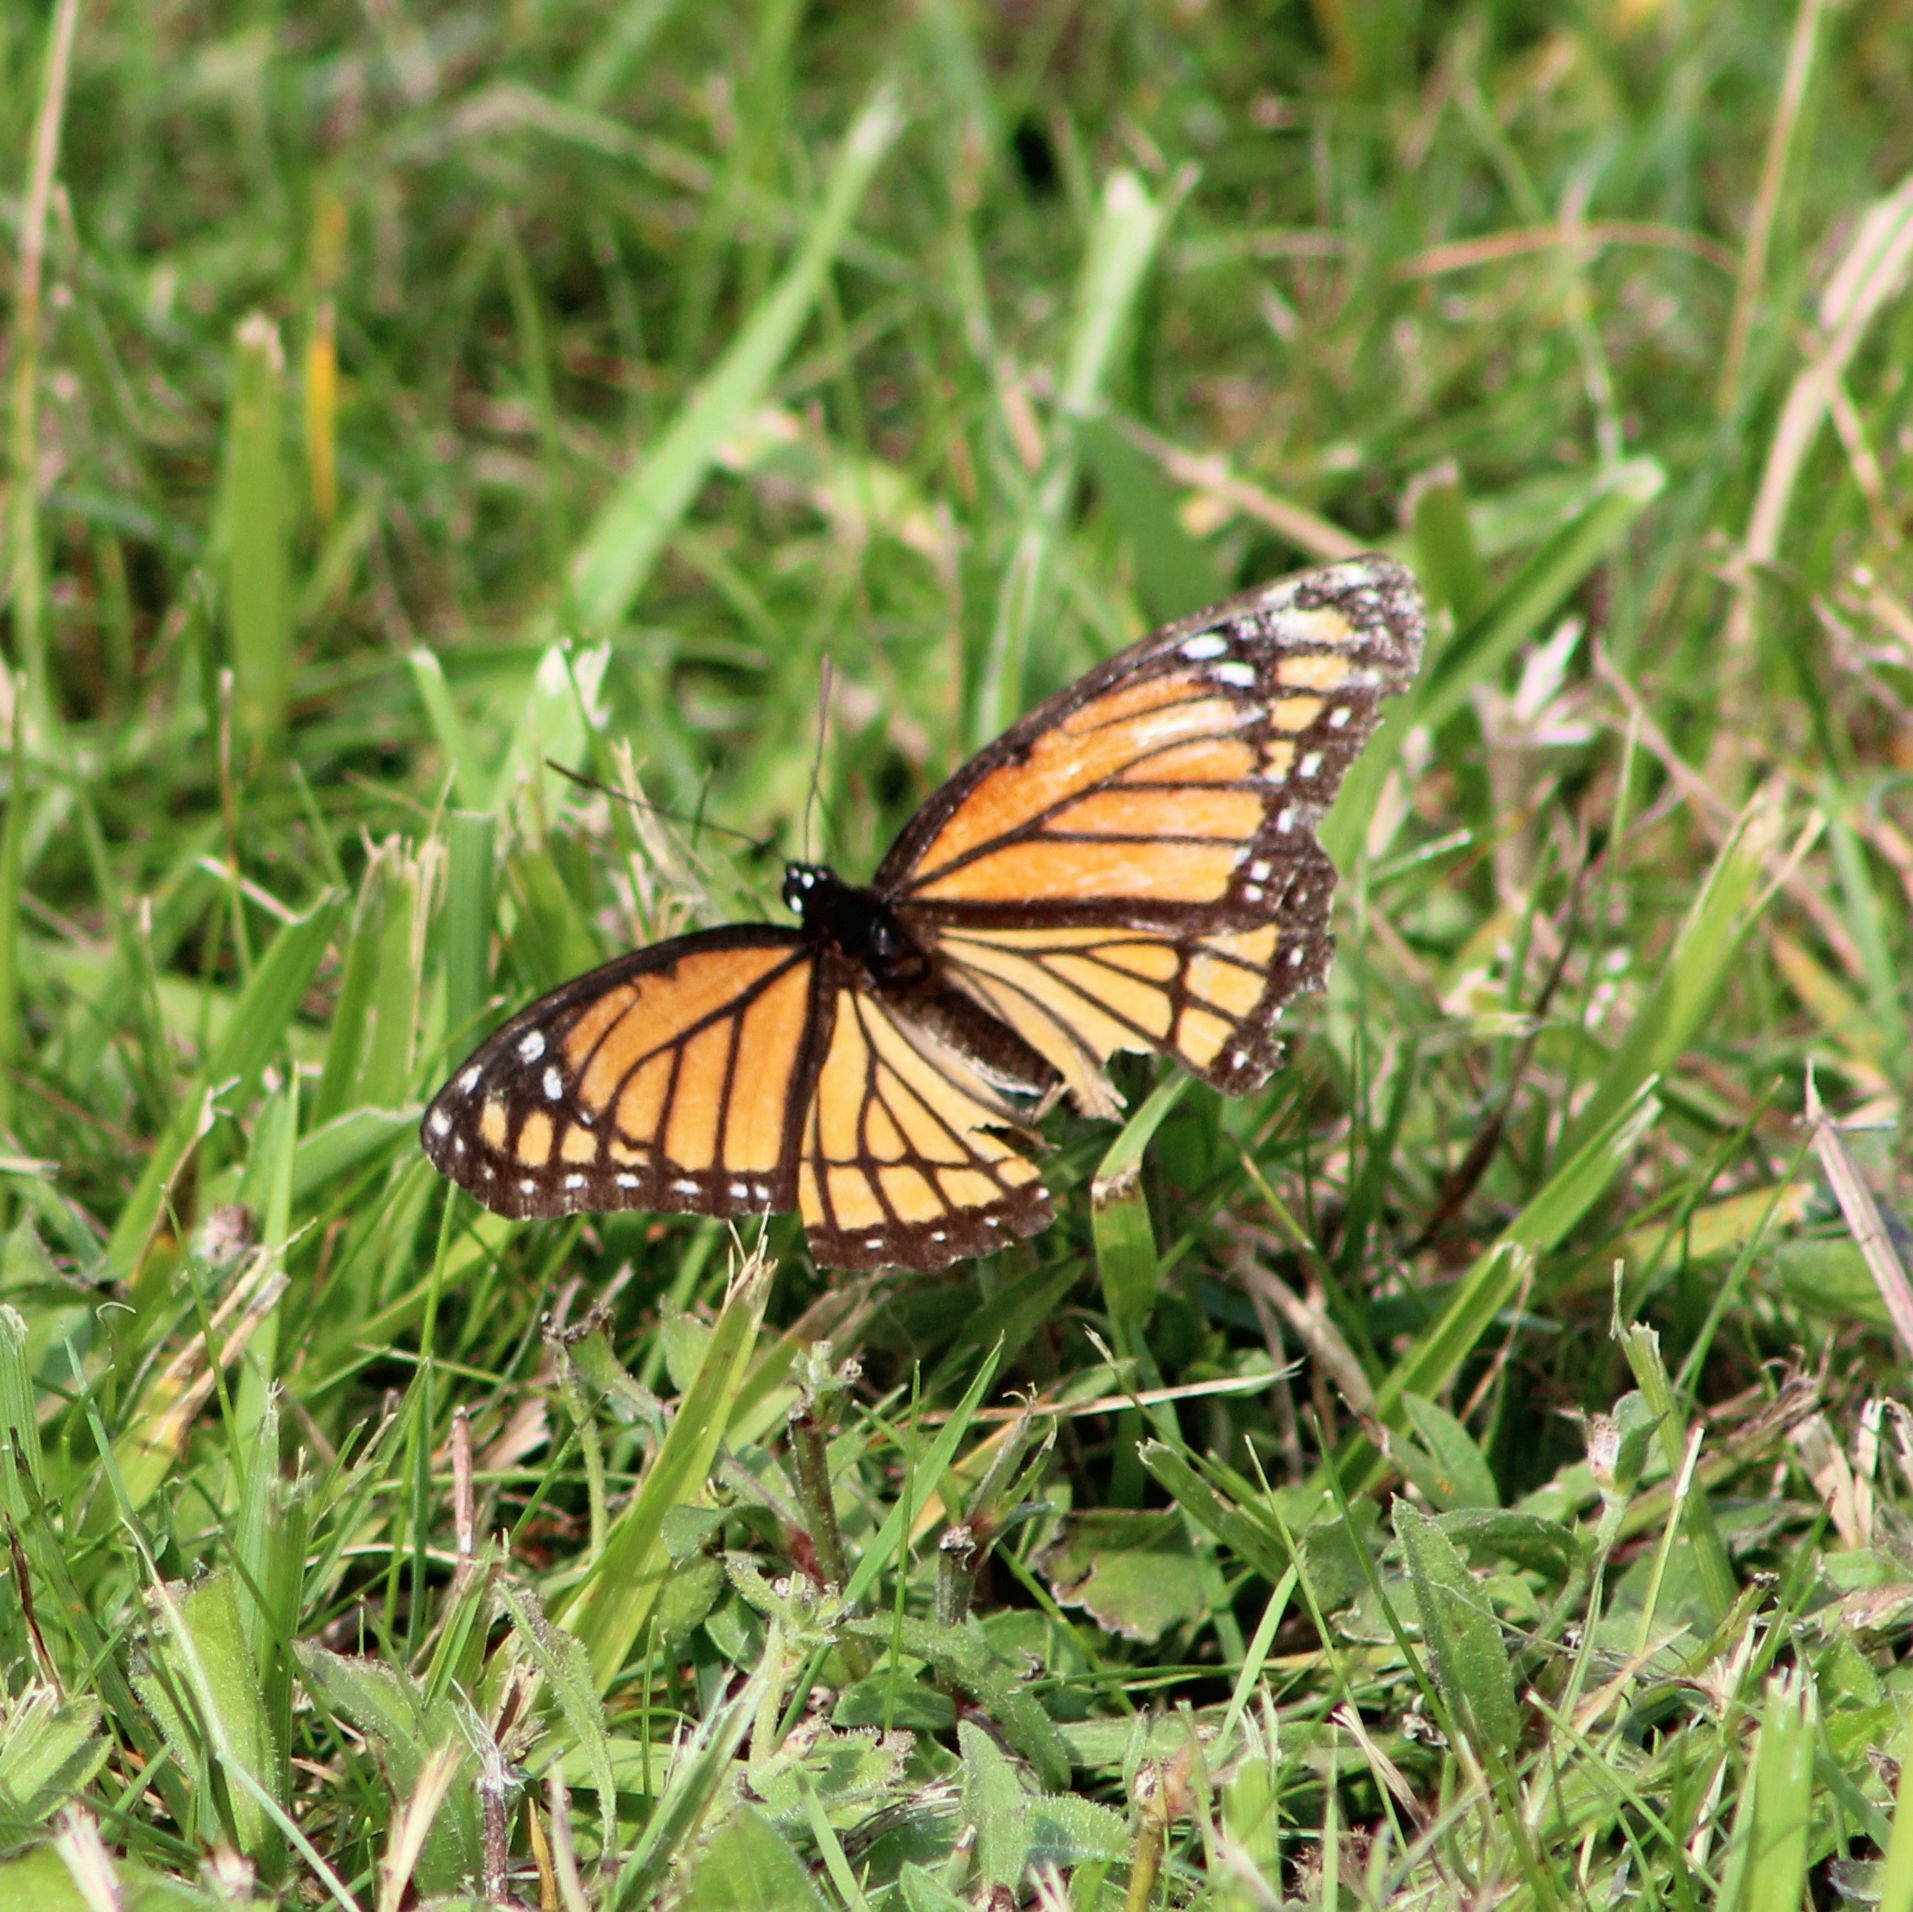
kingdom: Animalia
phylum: Arthropoda
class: Insecta
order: Lepidoptera
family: Nymphalidae
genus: Limenitis
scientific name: Limenitis archippus
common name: Viceroy
